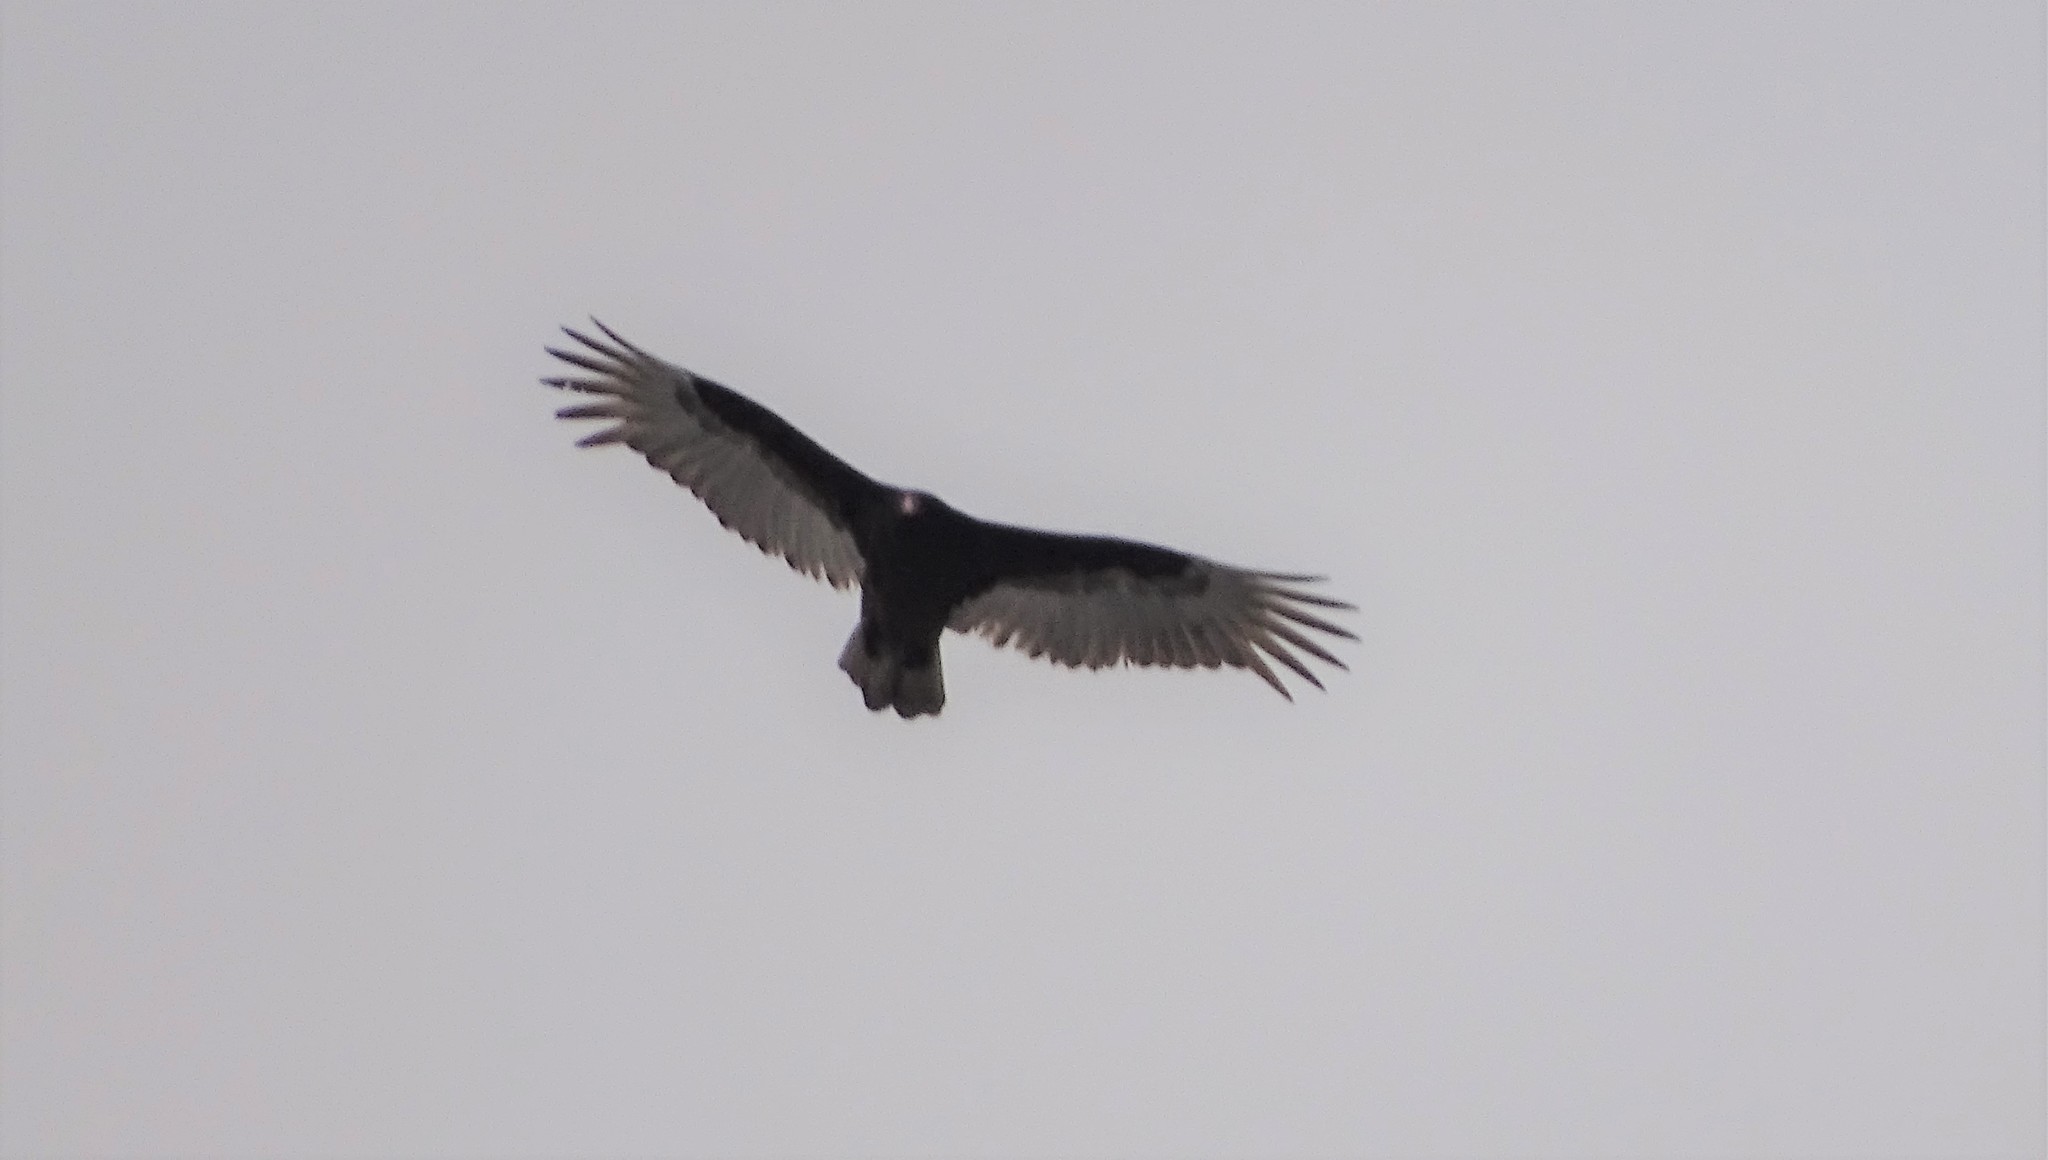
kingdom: Animalia
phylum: Chordata
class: Aves
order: Accipitriformes
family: Cathartidae
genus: Cathartes
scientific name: Cathartes aura
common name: Turkey vulture
